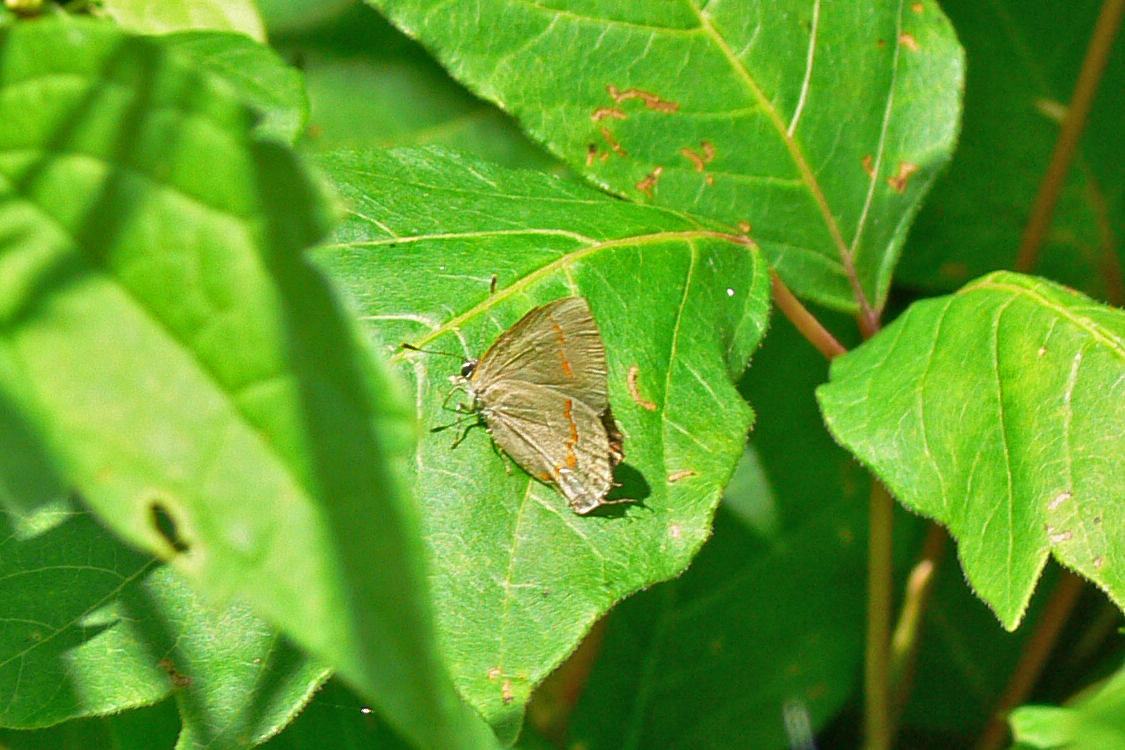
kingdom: Animalia
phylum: Arthropoda
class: Insecta
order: Lepidoptera
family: Lycaenidae
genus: Calycopis
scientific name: Calycopis cecrops
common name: Red-banded hairstreak
